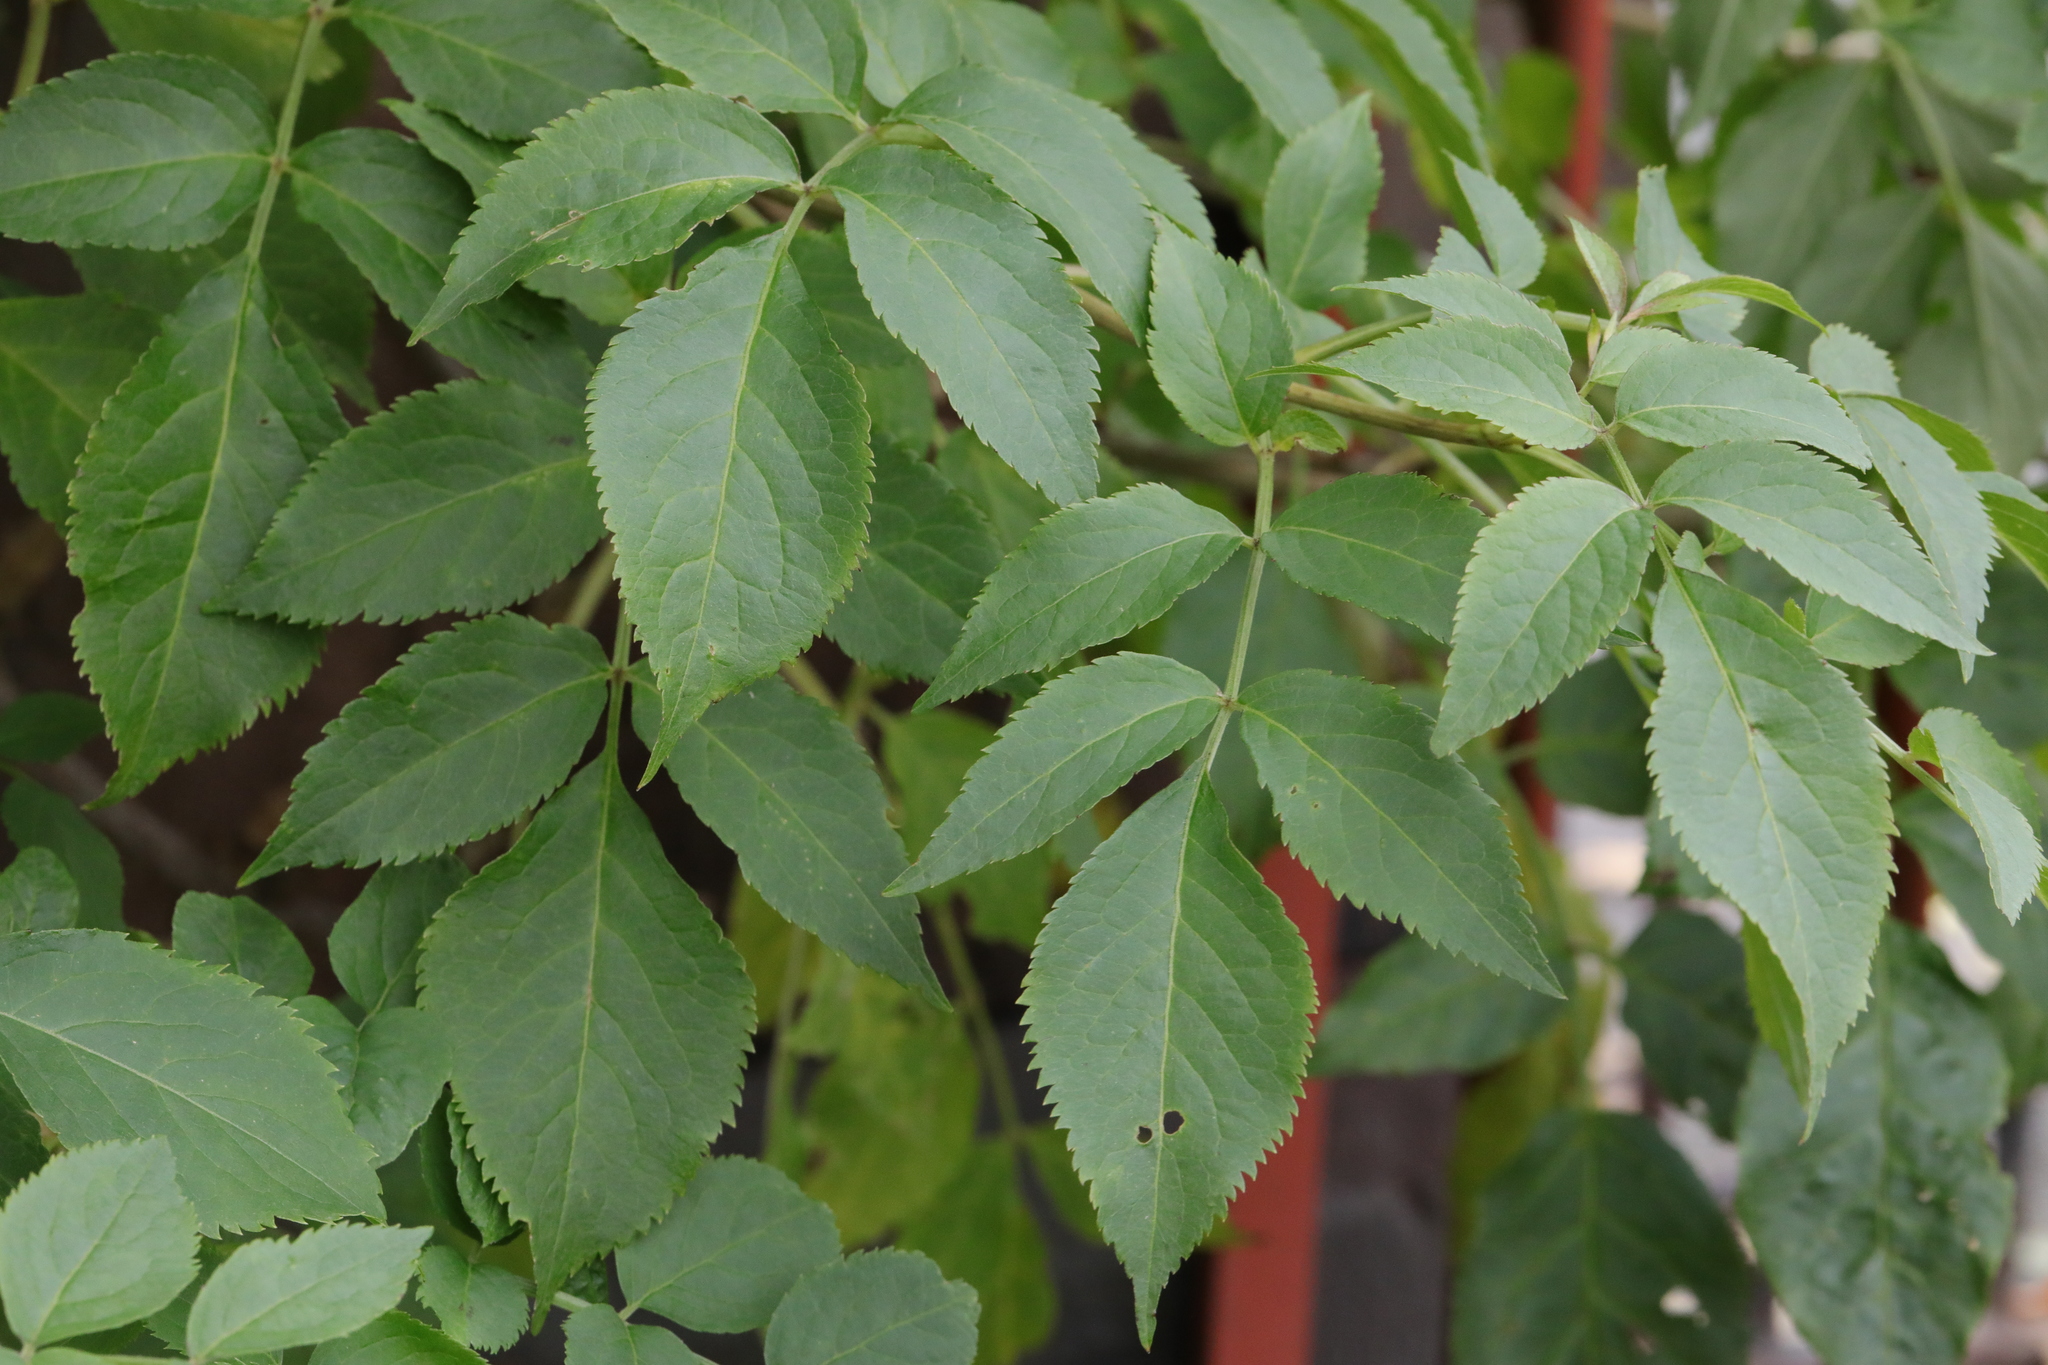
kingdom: Plantae
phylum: Tracheophyta
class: Magnoliopsida
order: Dipsacales
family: Viburnaceae
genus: Sambucus
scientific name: Sambucus nigra
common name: Elder
